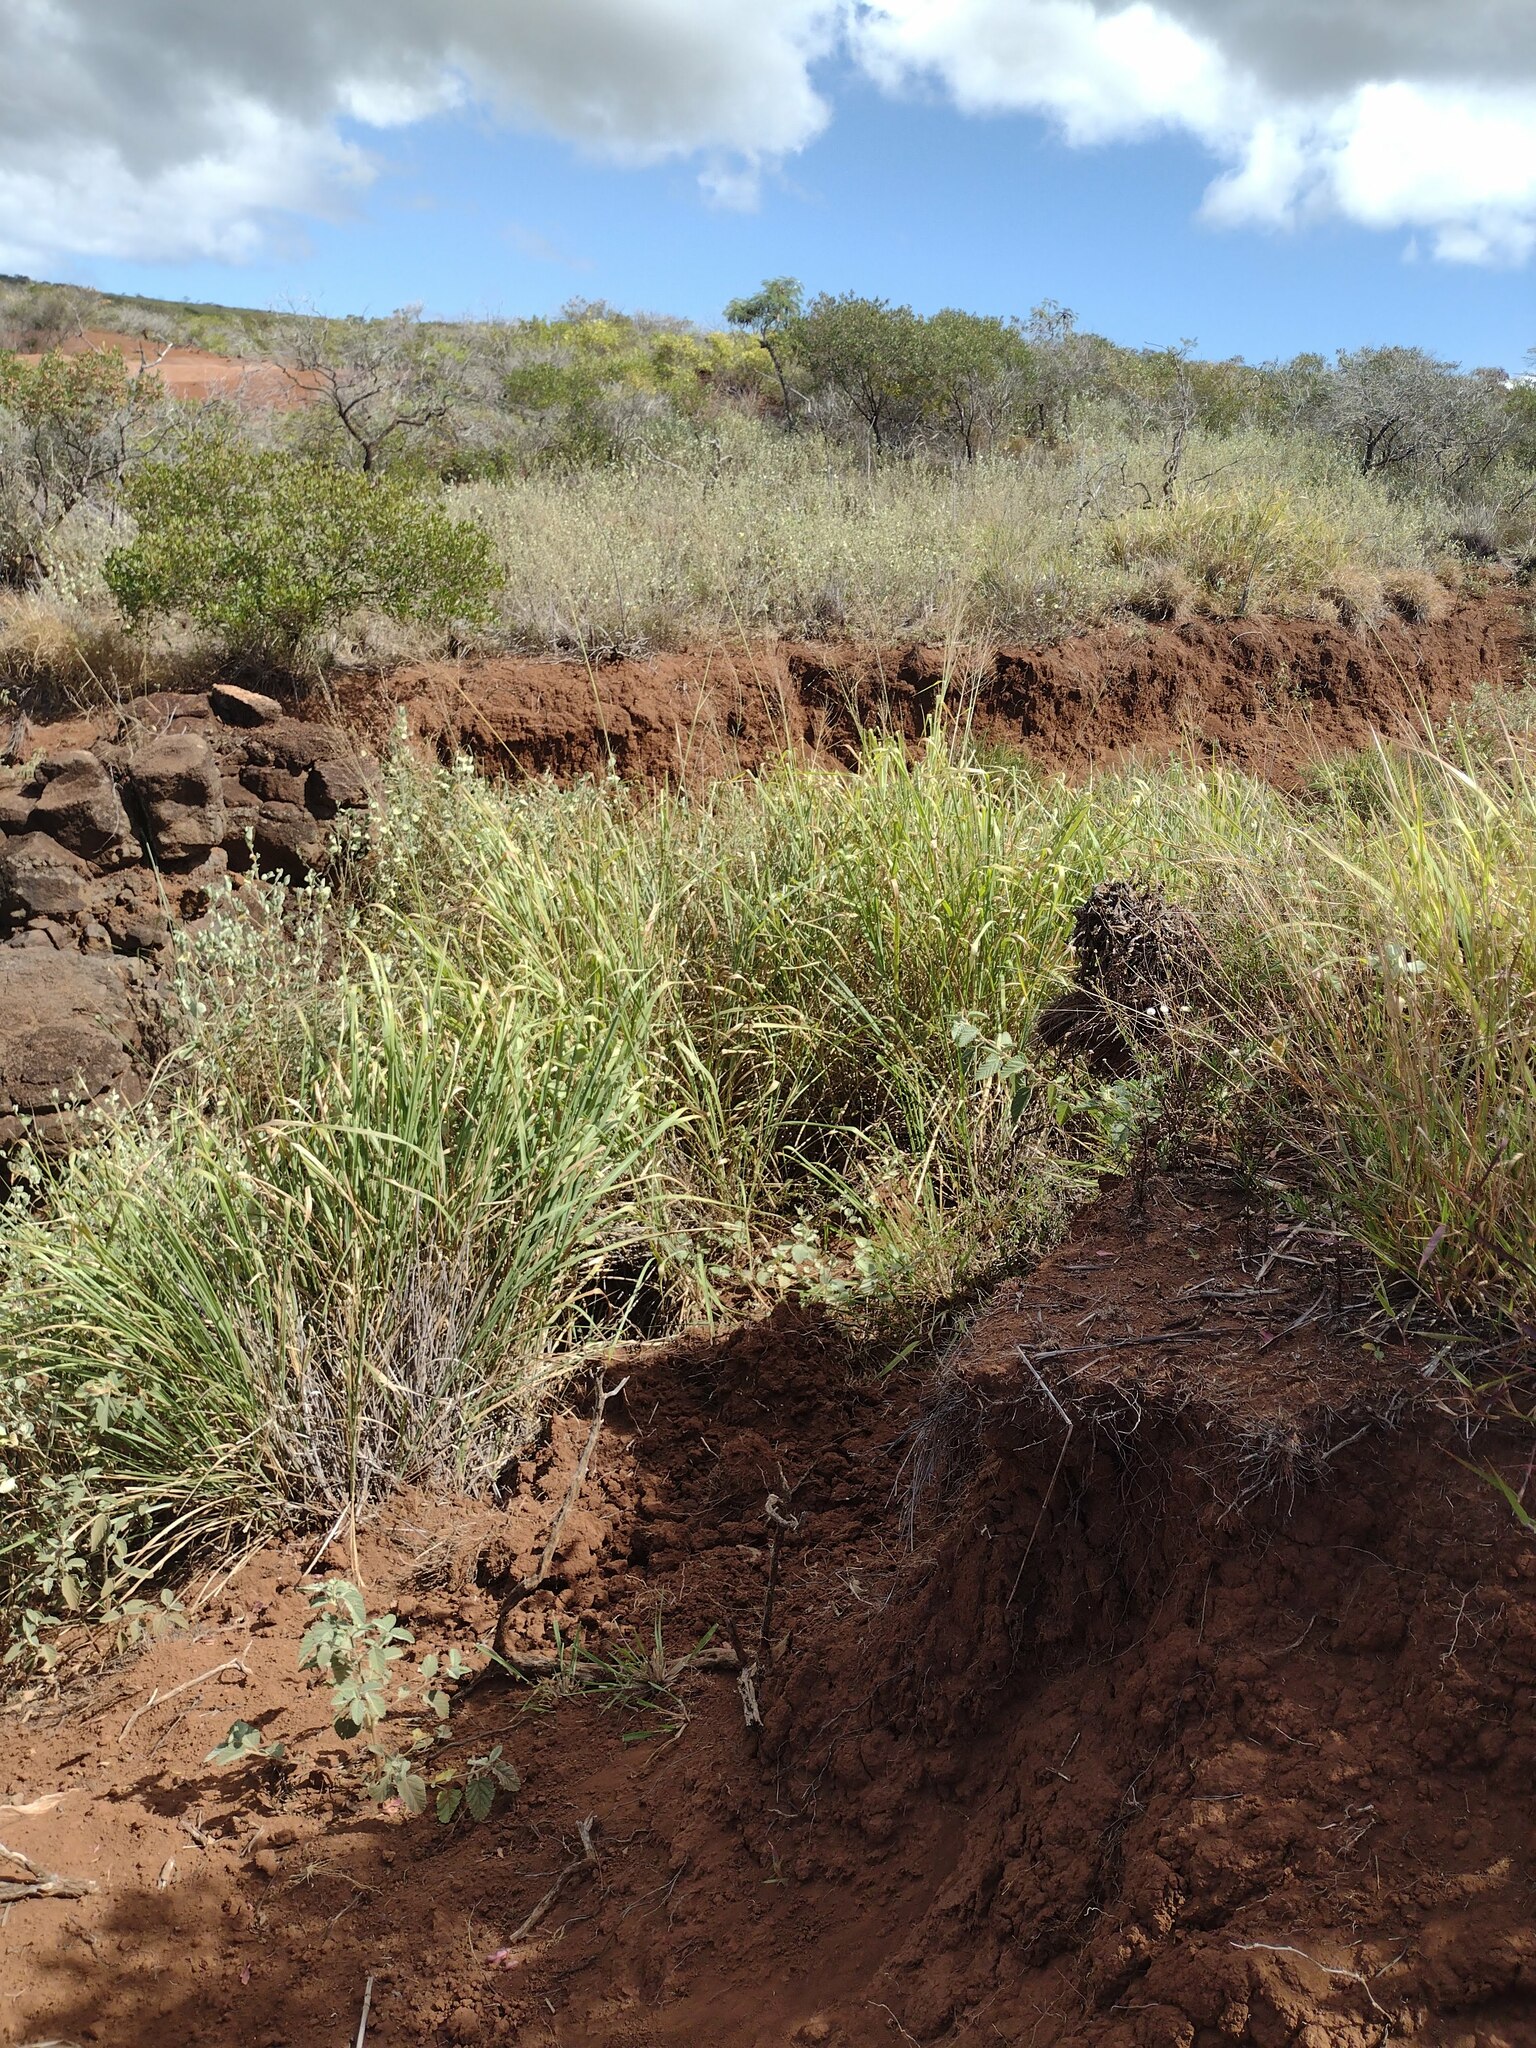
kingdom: Plantae
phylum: Tracheophyta
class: Liliopsida
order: Poales
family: Poaceae
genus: Megathyrsus
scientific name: Megathyrsus maximus
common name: Guineagrass
